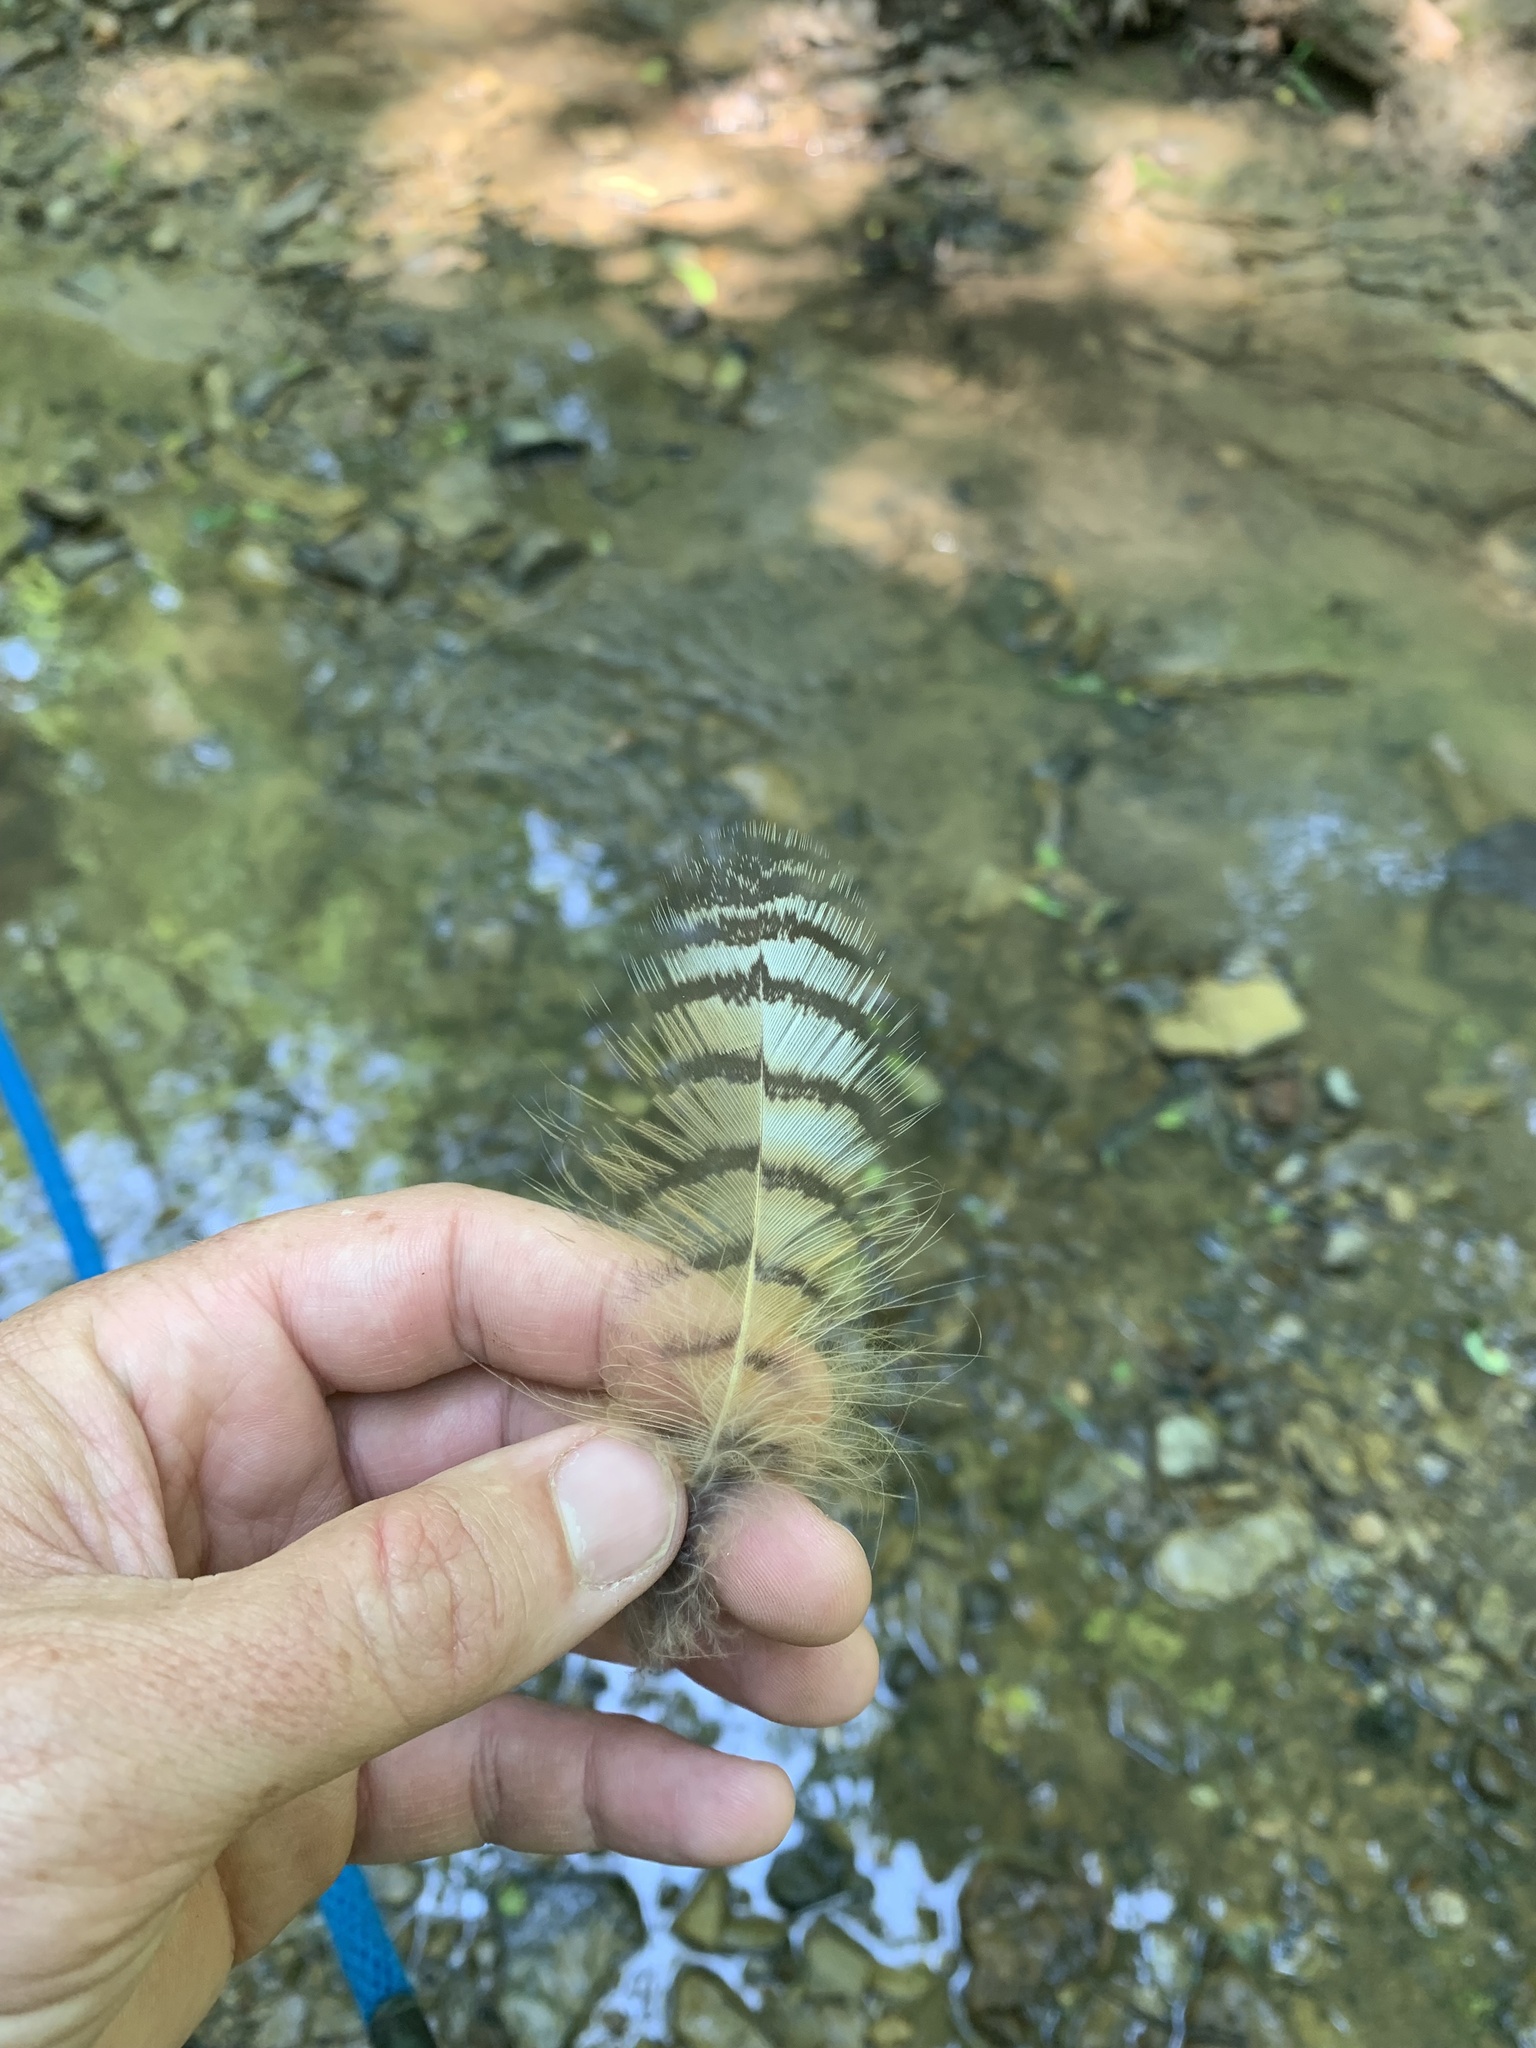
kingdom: Animalia
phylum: Chordata
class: Aves
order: Strigiformes
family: Strigidae
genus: Bubo
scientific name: Bubo virginianus
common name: Great horned owl
